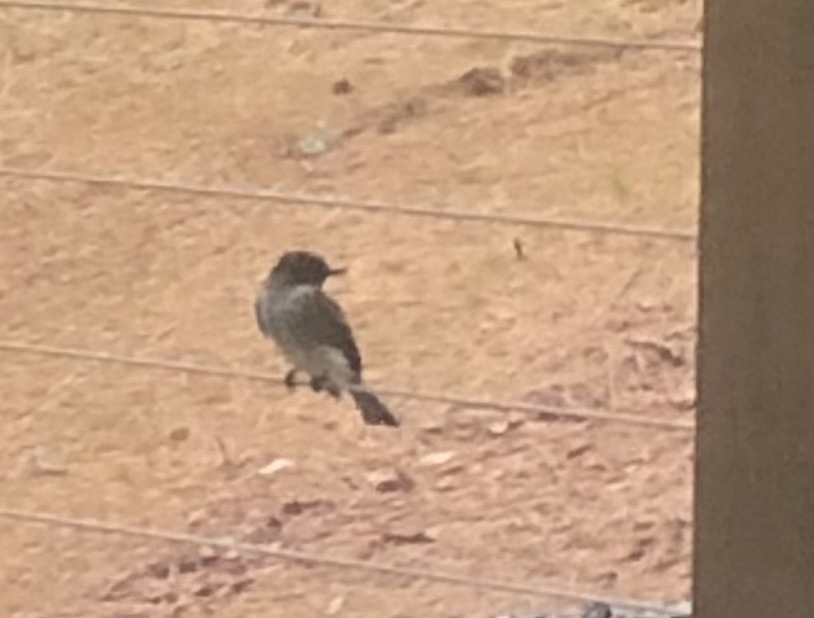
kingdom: Animalia
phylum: Chordata
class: Aves
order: Passeriformes
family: Tyrannidae
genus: Sayornis
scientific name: Sayornis phoebe
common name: Eastern phoebe
